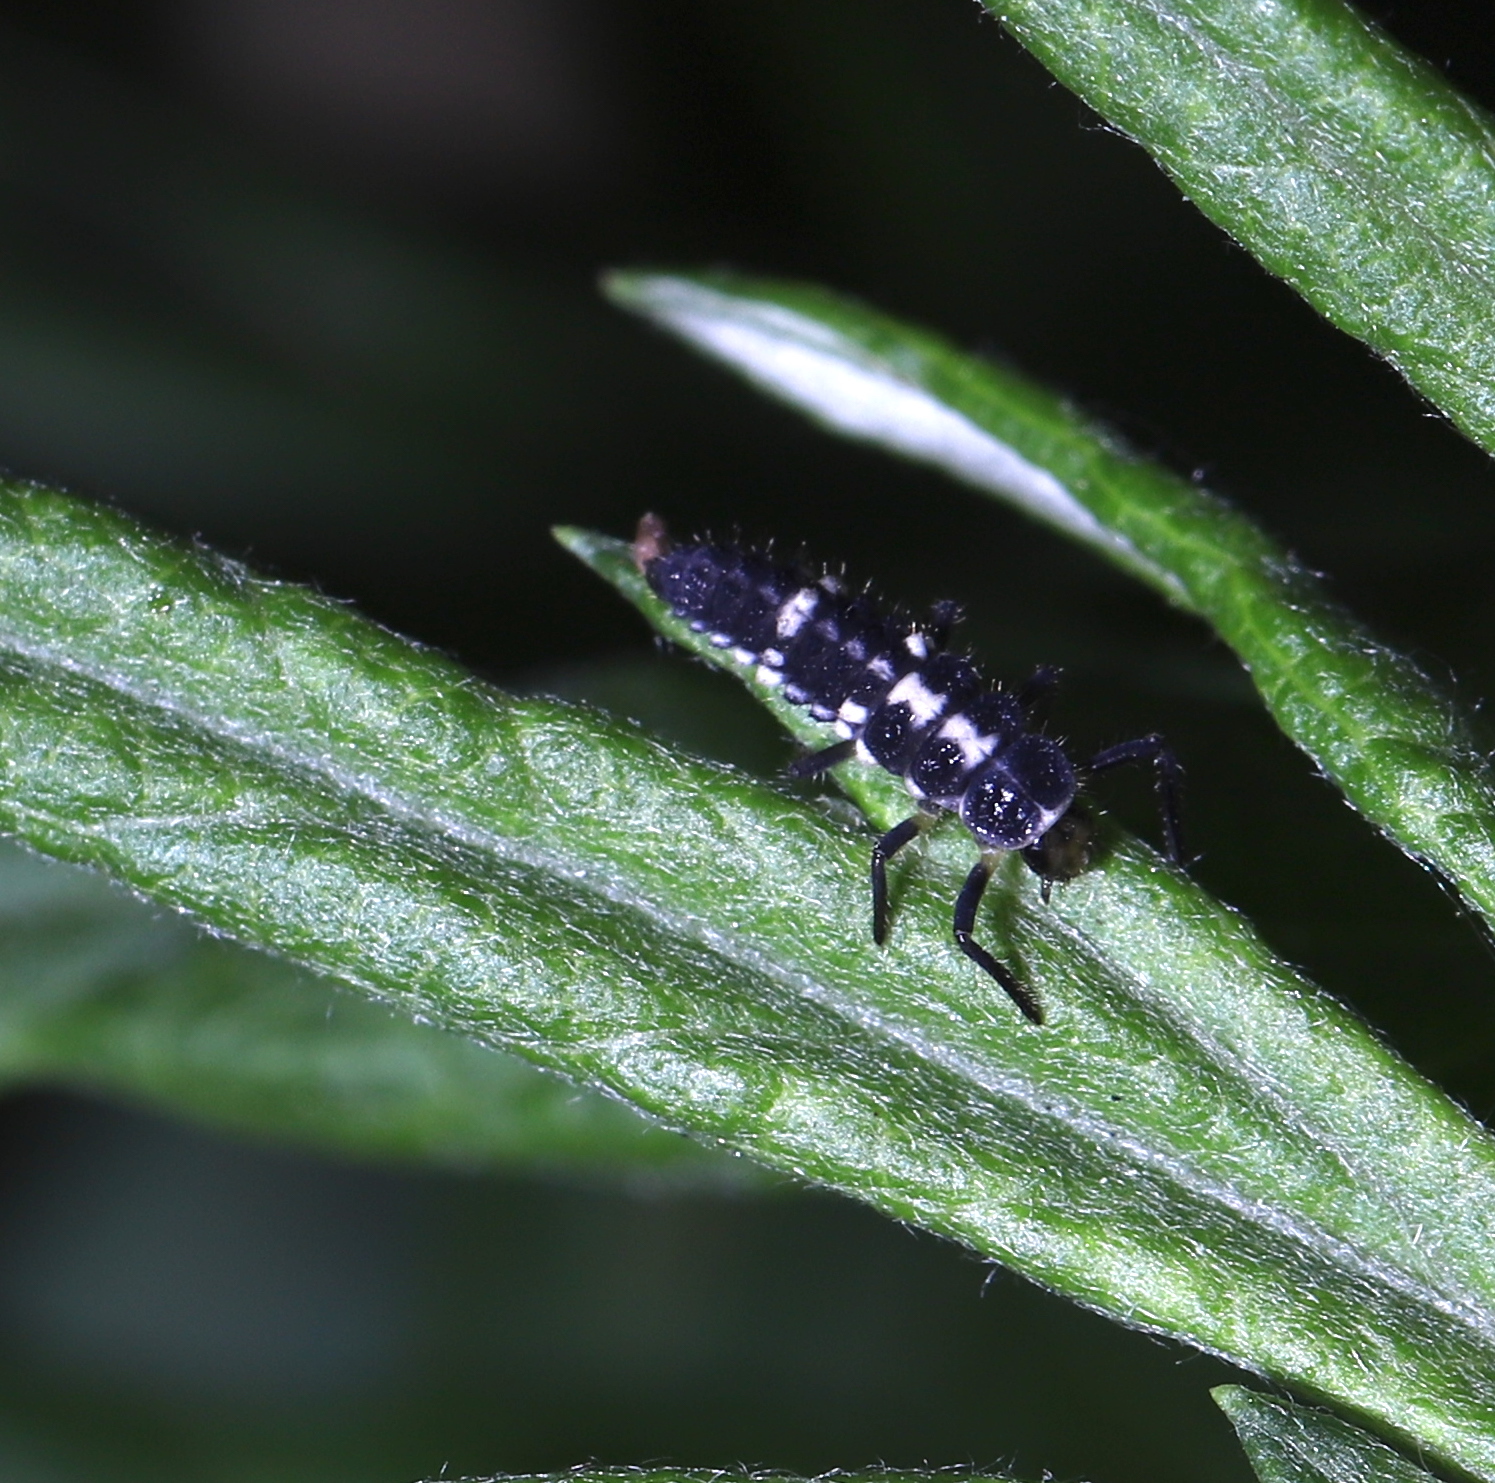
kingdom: Animalia
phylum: Arthropoda
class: Insecta
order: Coleoptera
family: Coccinellidae
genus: Propylaea
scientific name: Propylaea quatuordecimpunctata
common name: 14-spotted ladybird beetle
